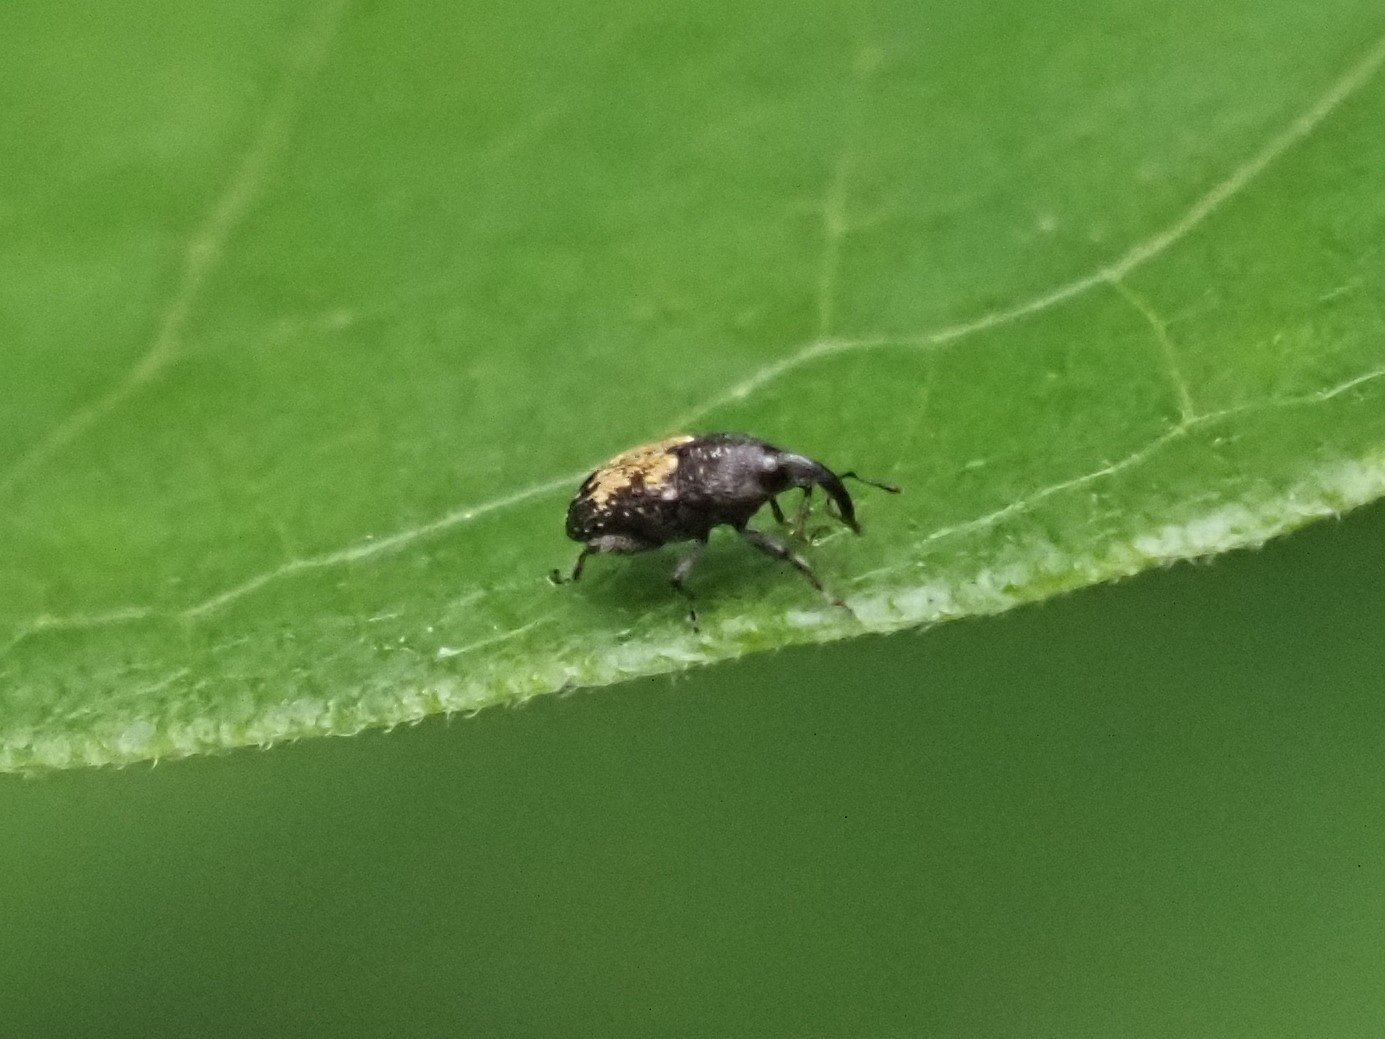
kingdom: Animalia
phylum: Arthropoda
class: Insecta
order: Coleoptera
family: Curculionidae
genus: Glyptobaris
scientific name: Glyptobaris lecontei
